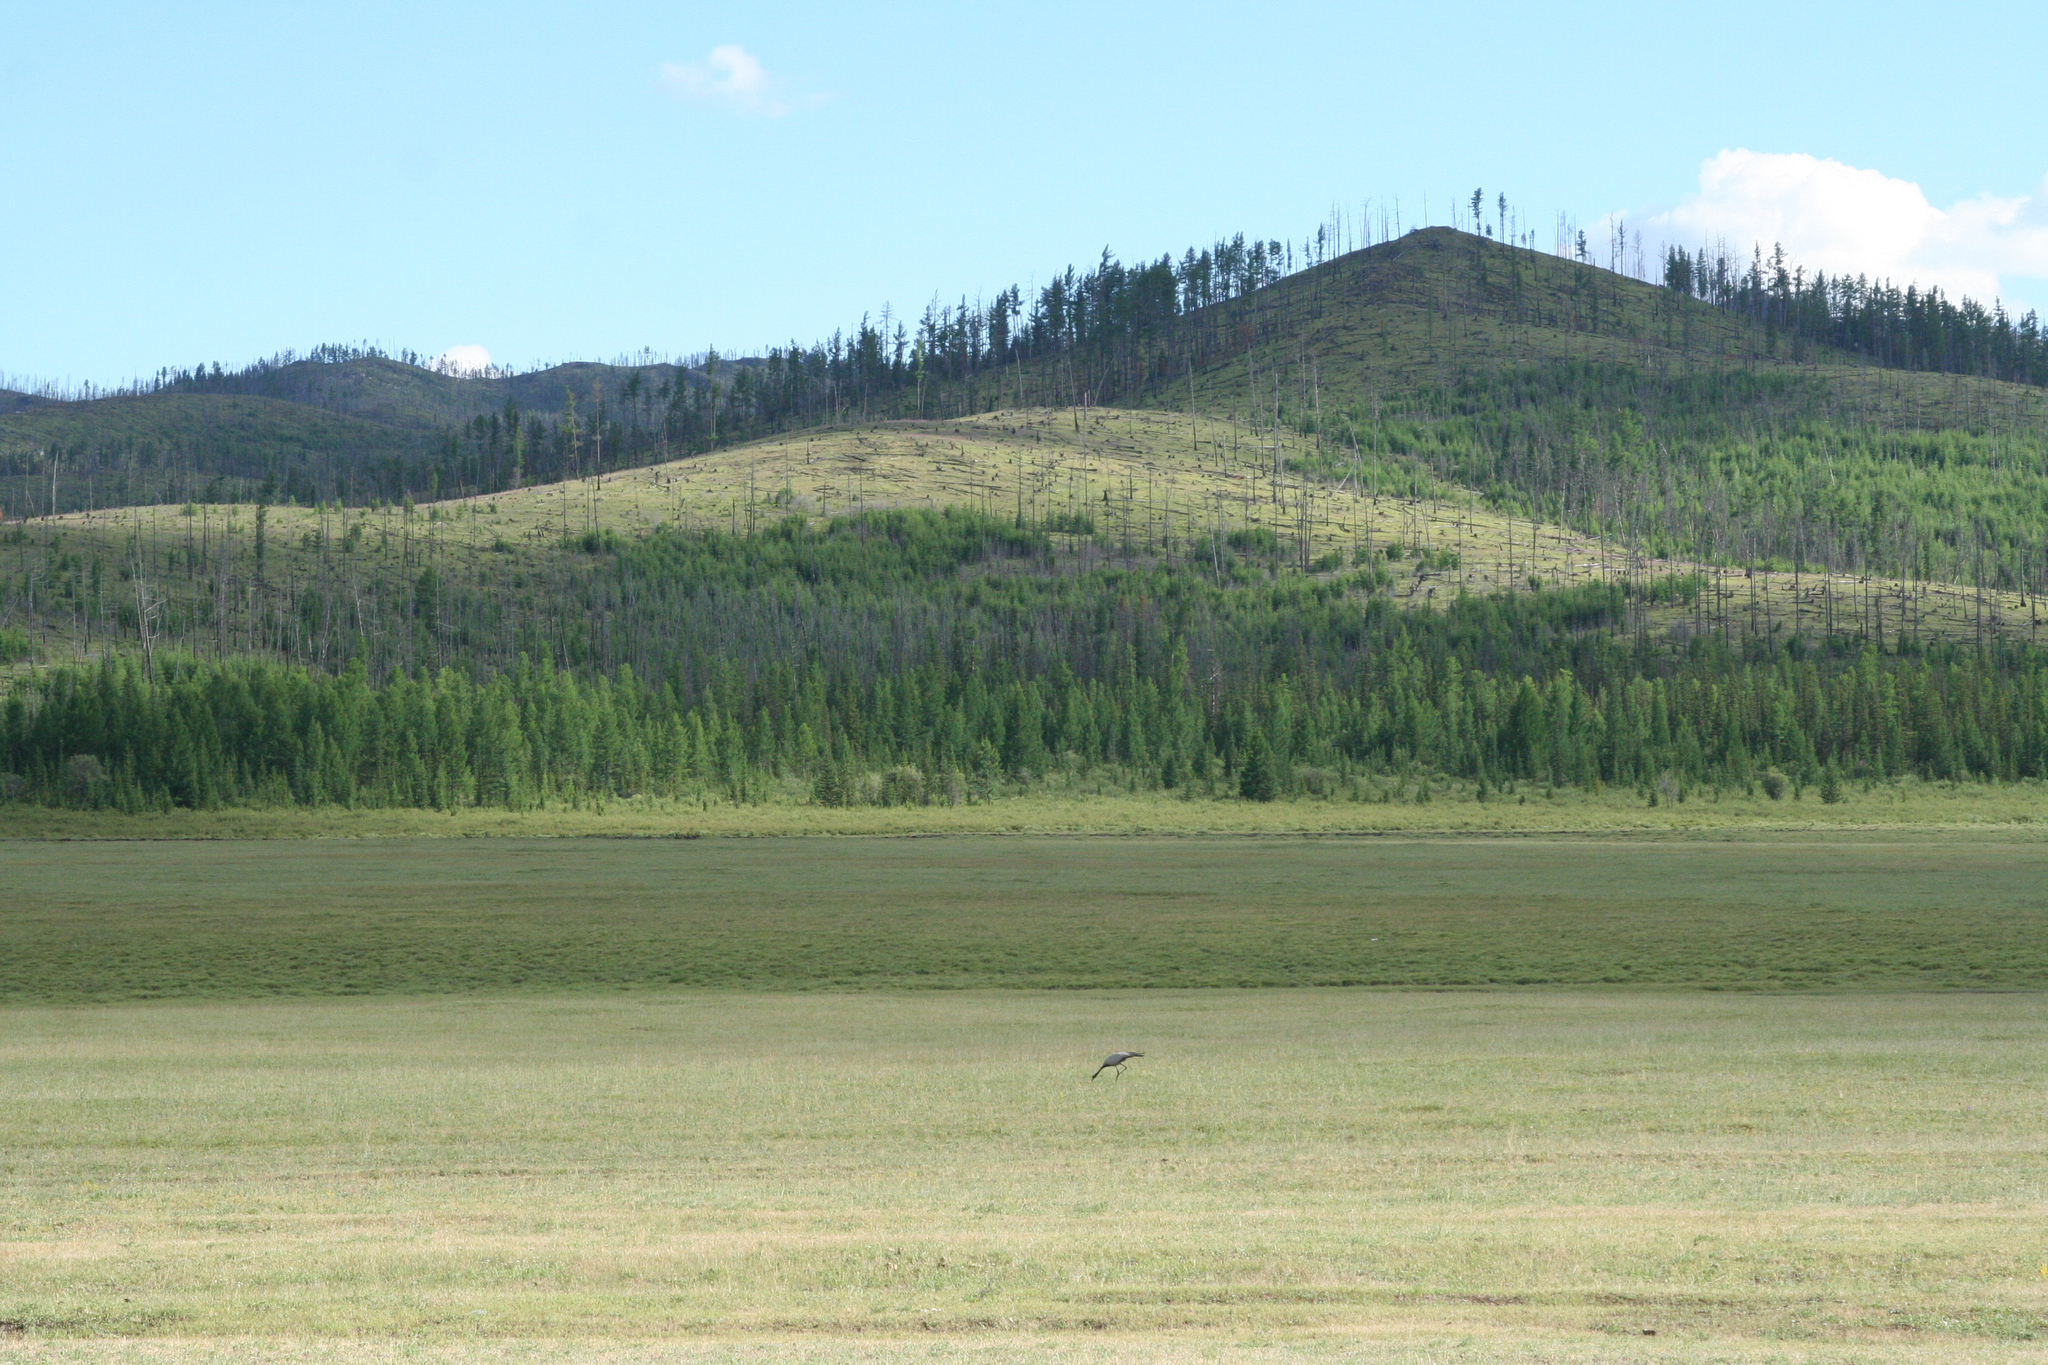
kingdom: Animalia
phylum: Chordata
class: Aves
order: Gruiformes
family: Gruidae
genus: Anthropoides
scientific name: Anthropoides virgo
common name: Demoiselle crane
